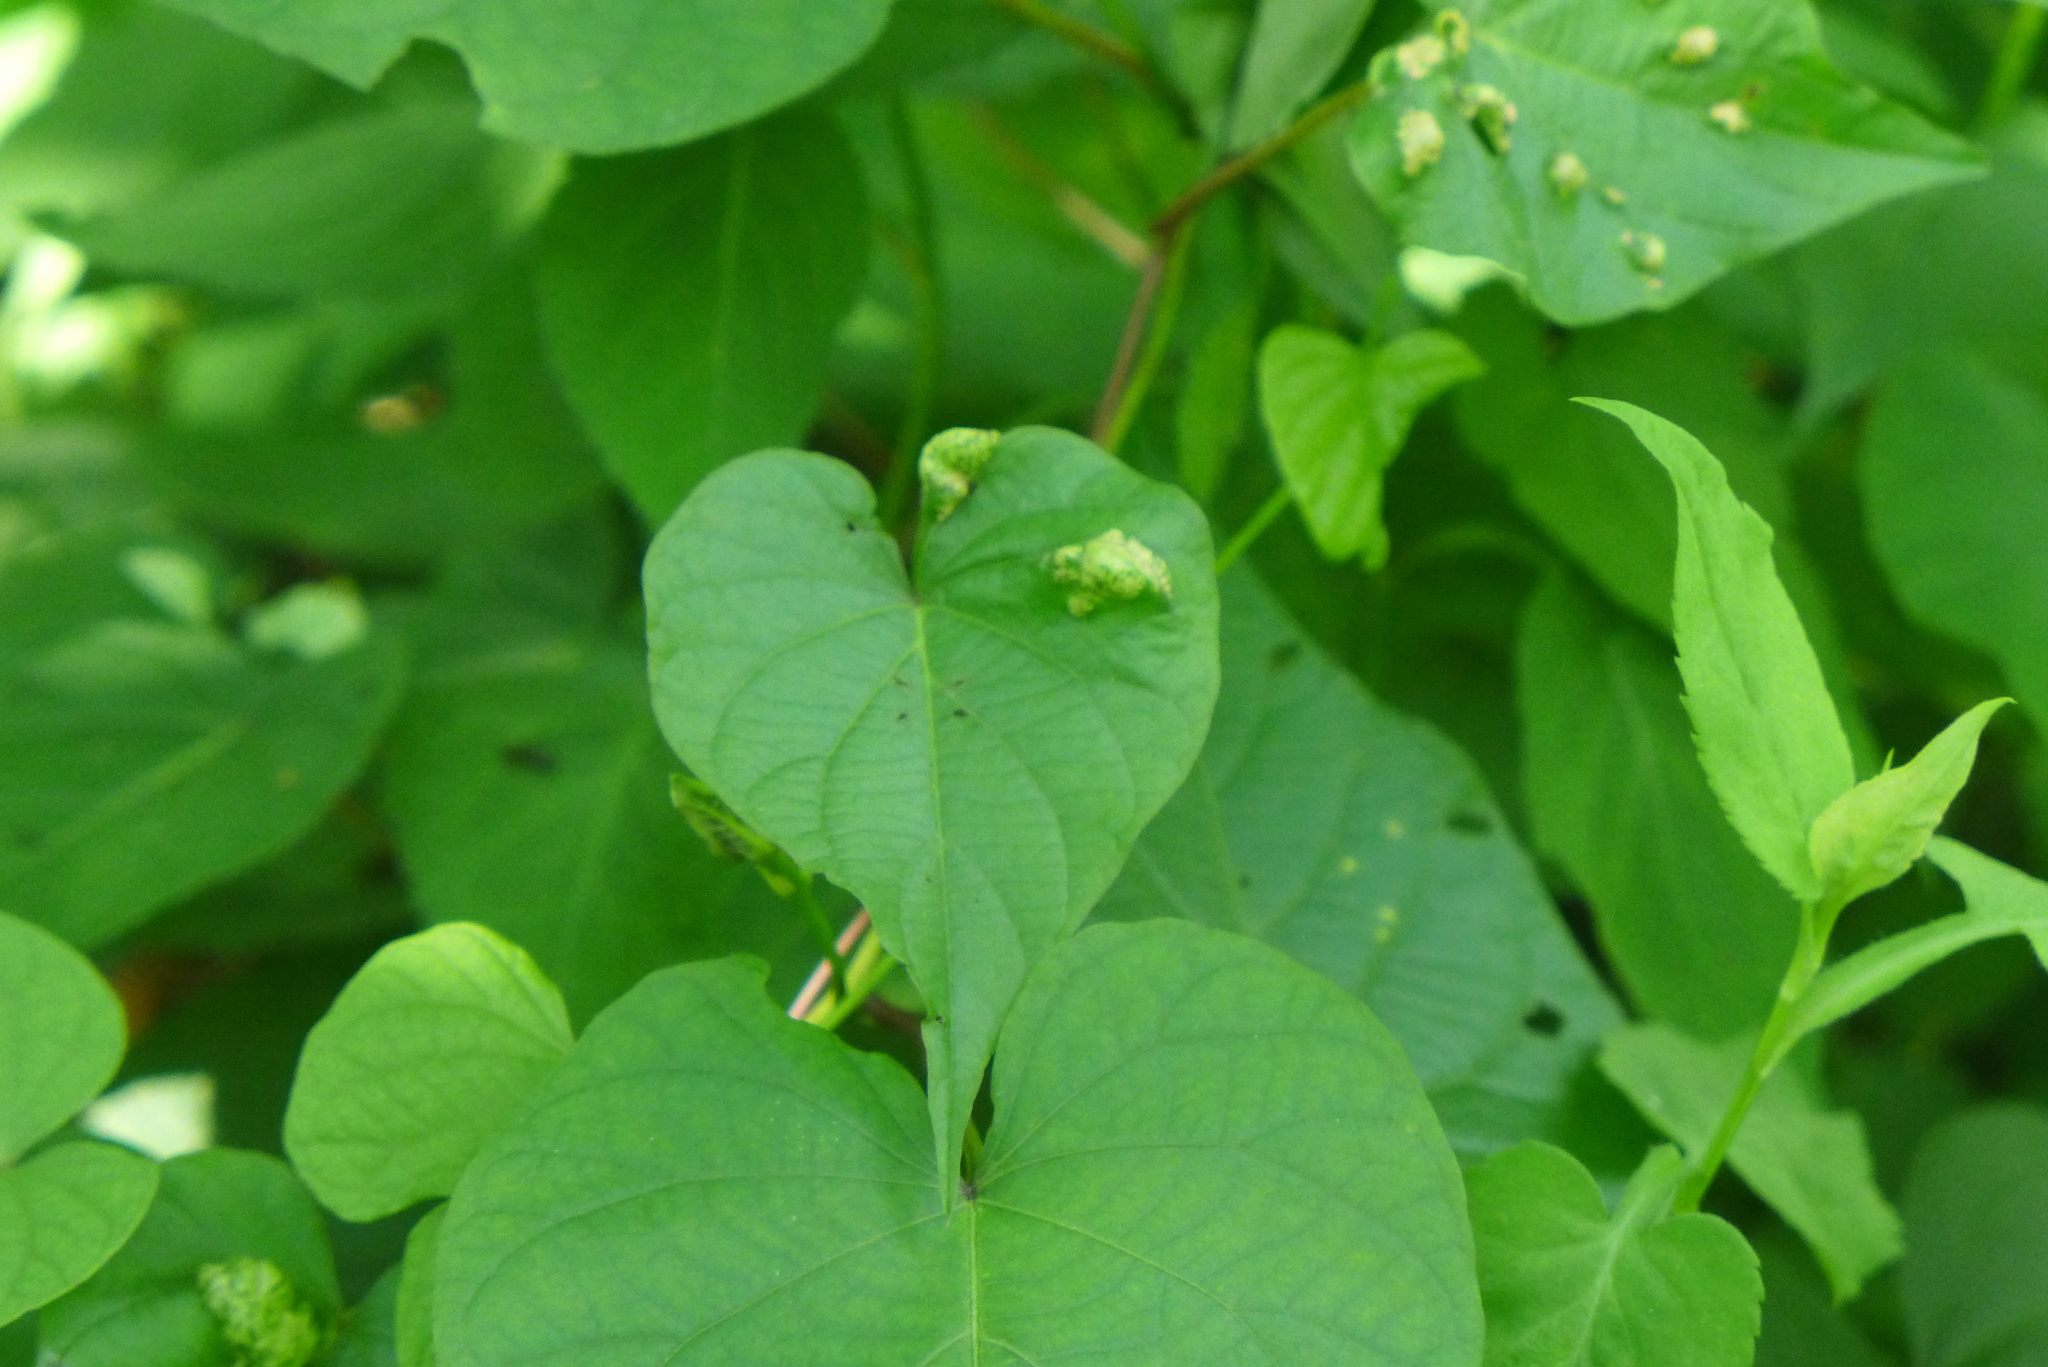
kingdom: Chromista
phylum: Oomycota
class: Peronosporea
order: Albuginales
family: Albuginaceae
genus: Albugo
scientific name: Albugo ipomoeae-panduratae
